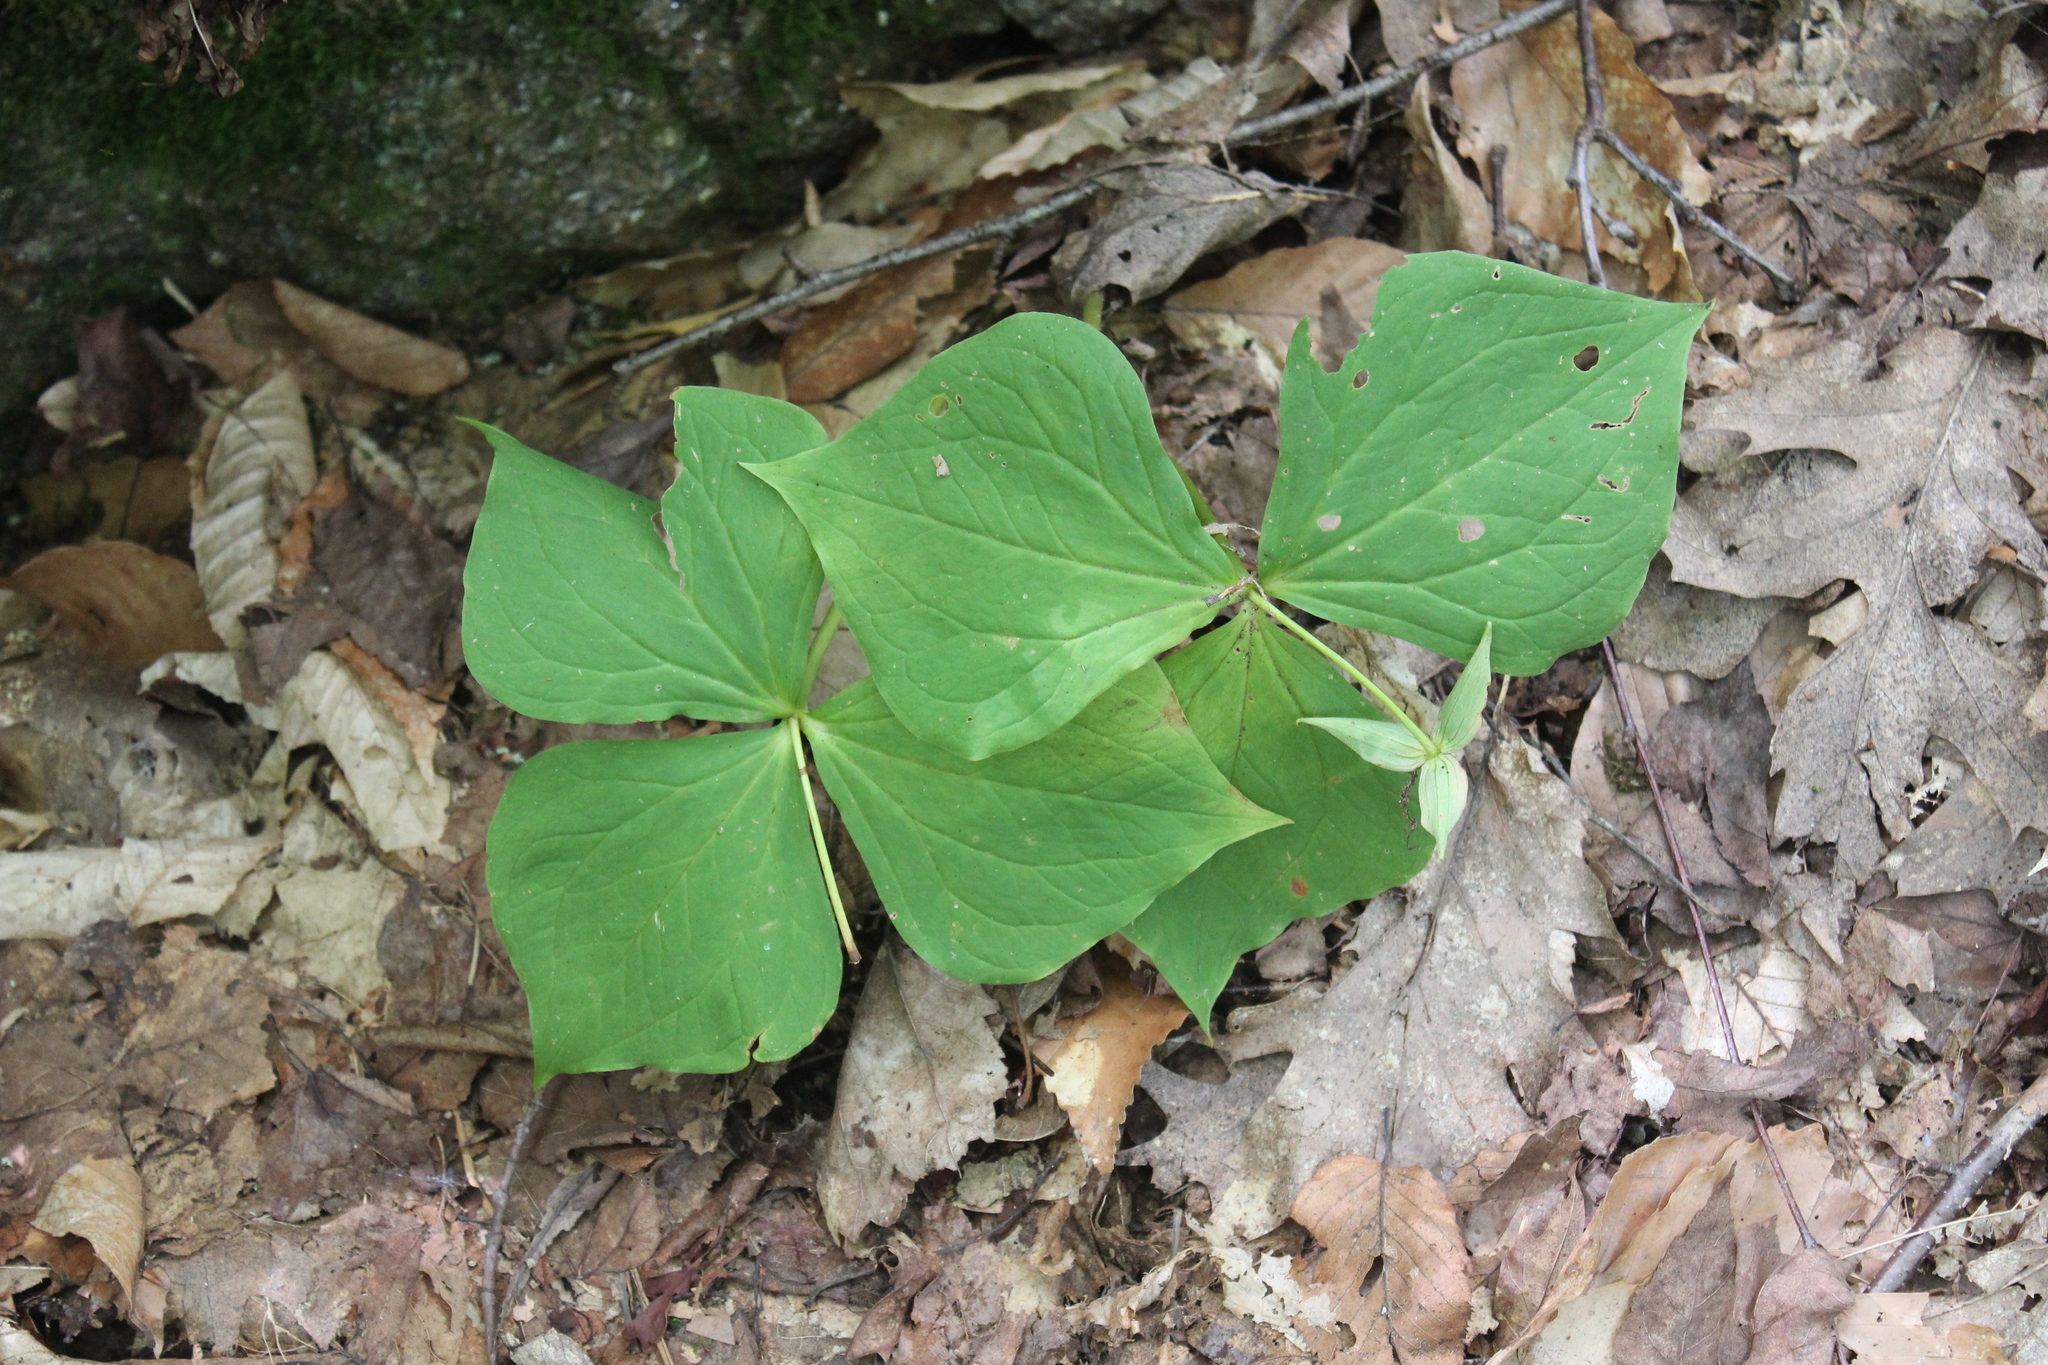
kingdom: Plantae
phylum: Tracheophyta
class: Liliopsida
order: Liliales
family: Melanthiaceae
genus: Trillium
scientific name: Trillium erectum
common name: Purple trillium
